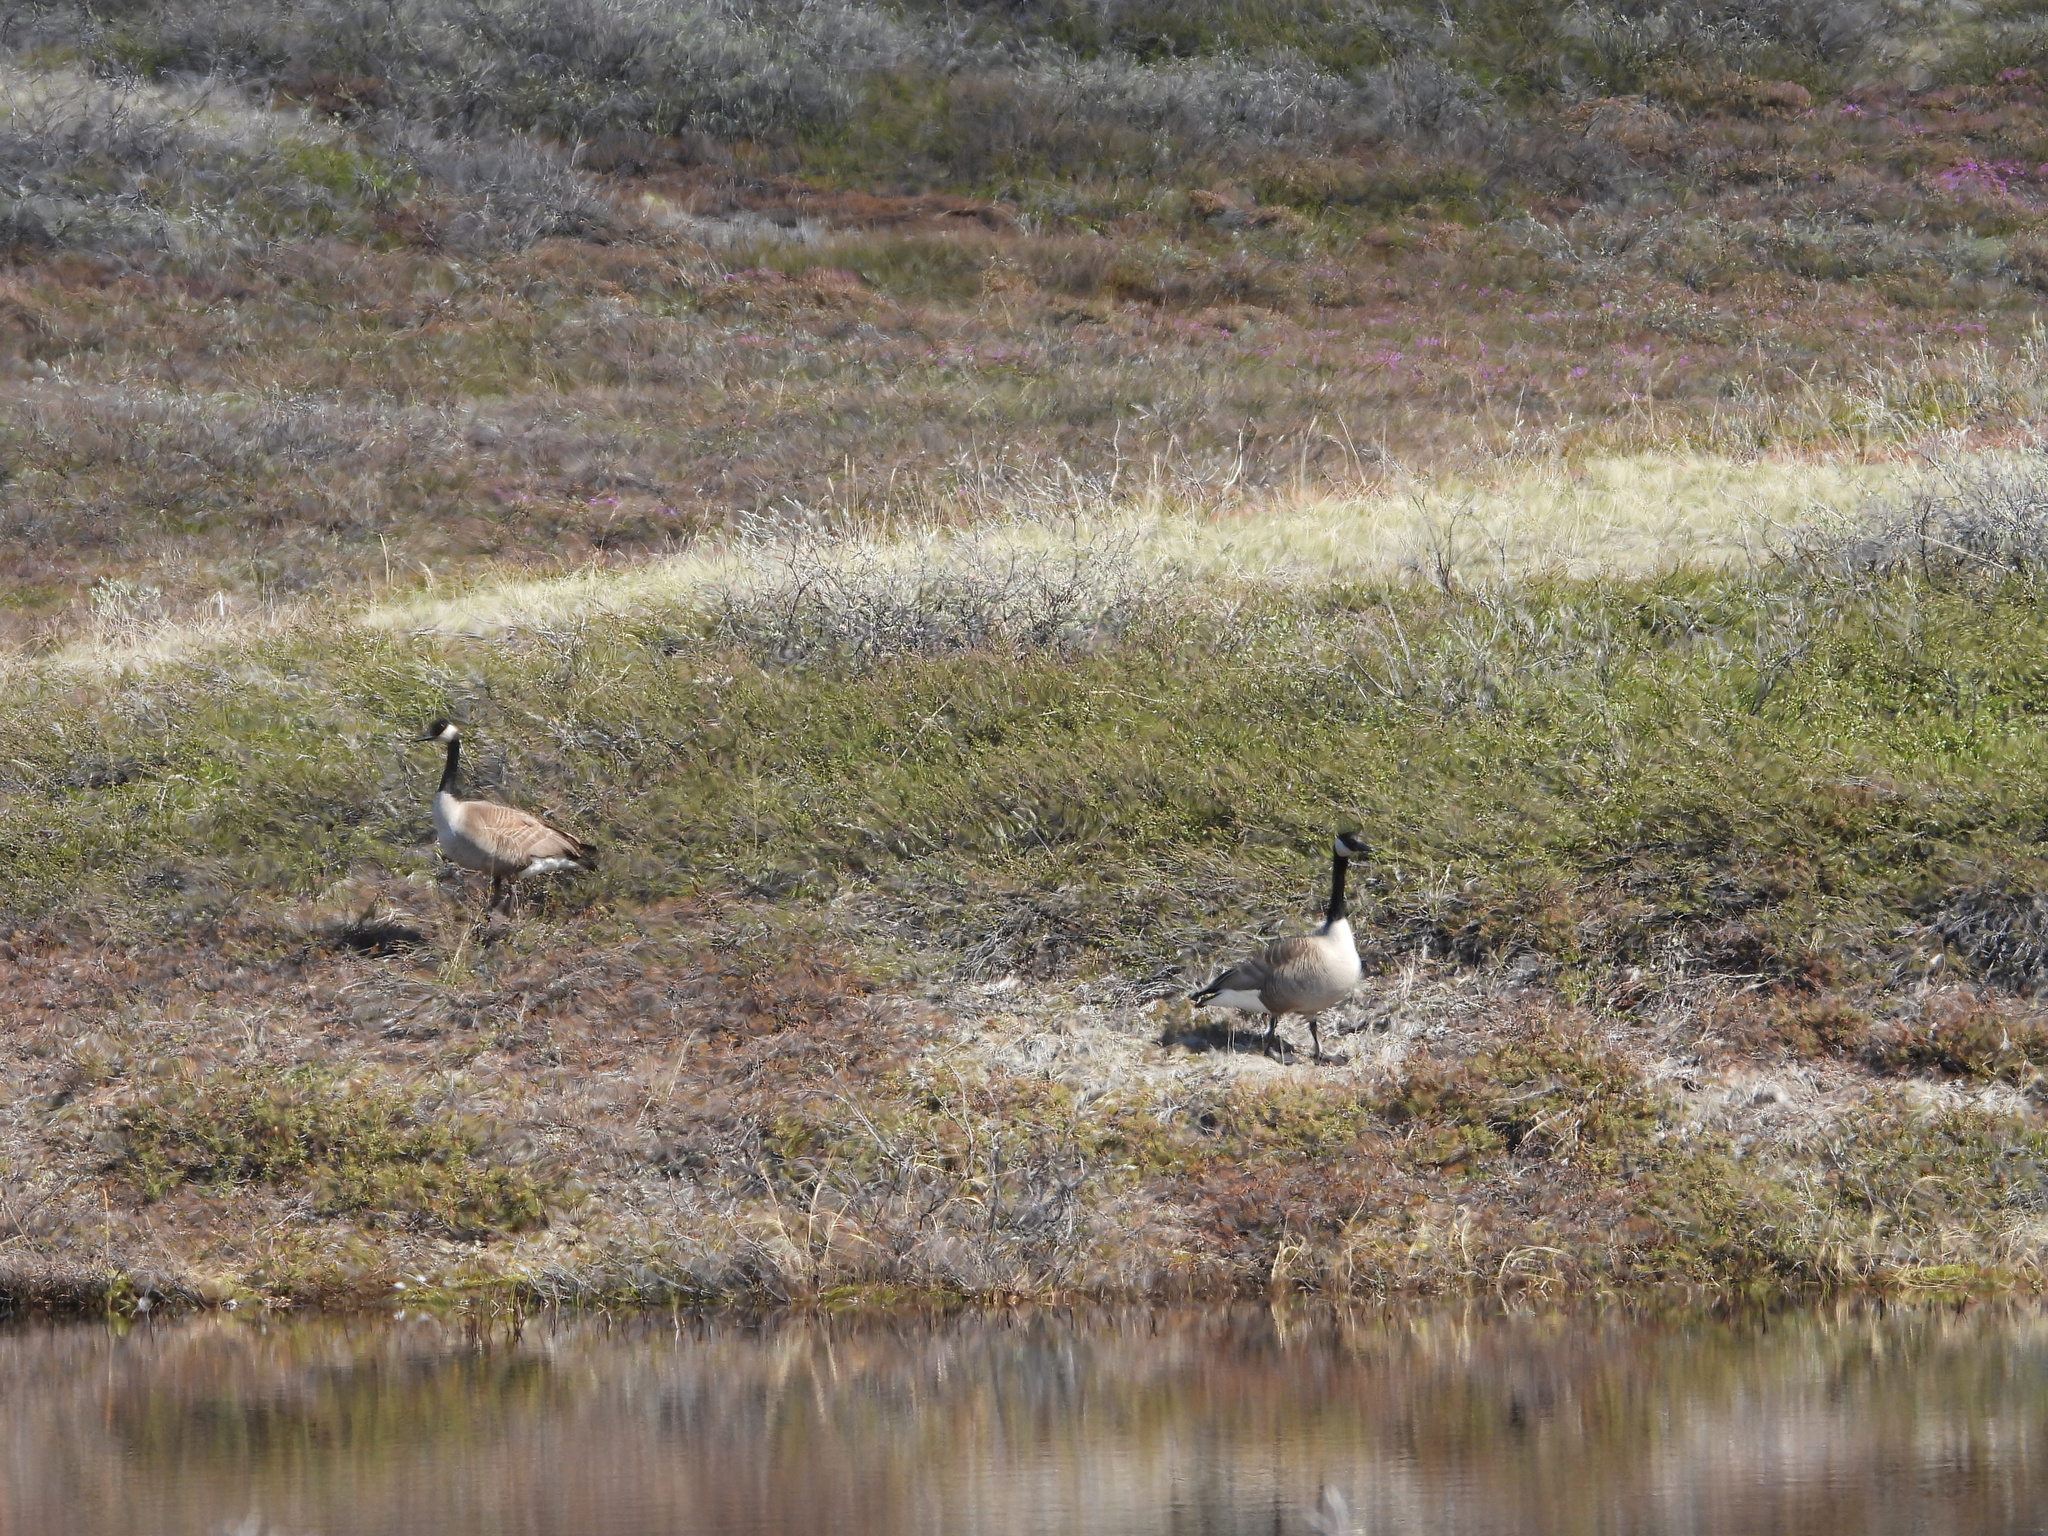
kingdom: Animalia
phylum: Chordata
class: Aves
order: Anseriformes
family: Anatidae
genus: Branta
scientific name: Branta canadensis
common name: Canada goose
